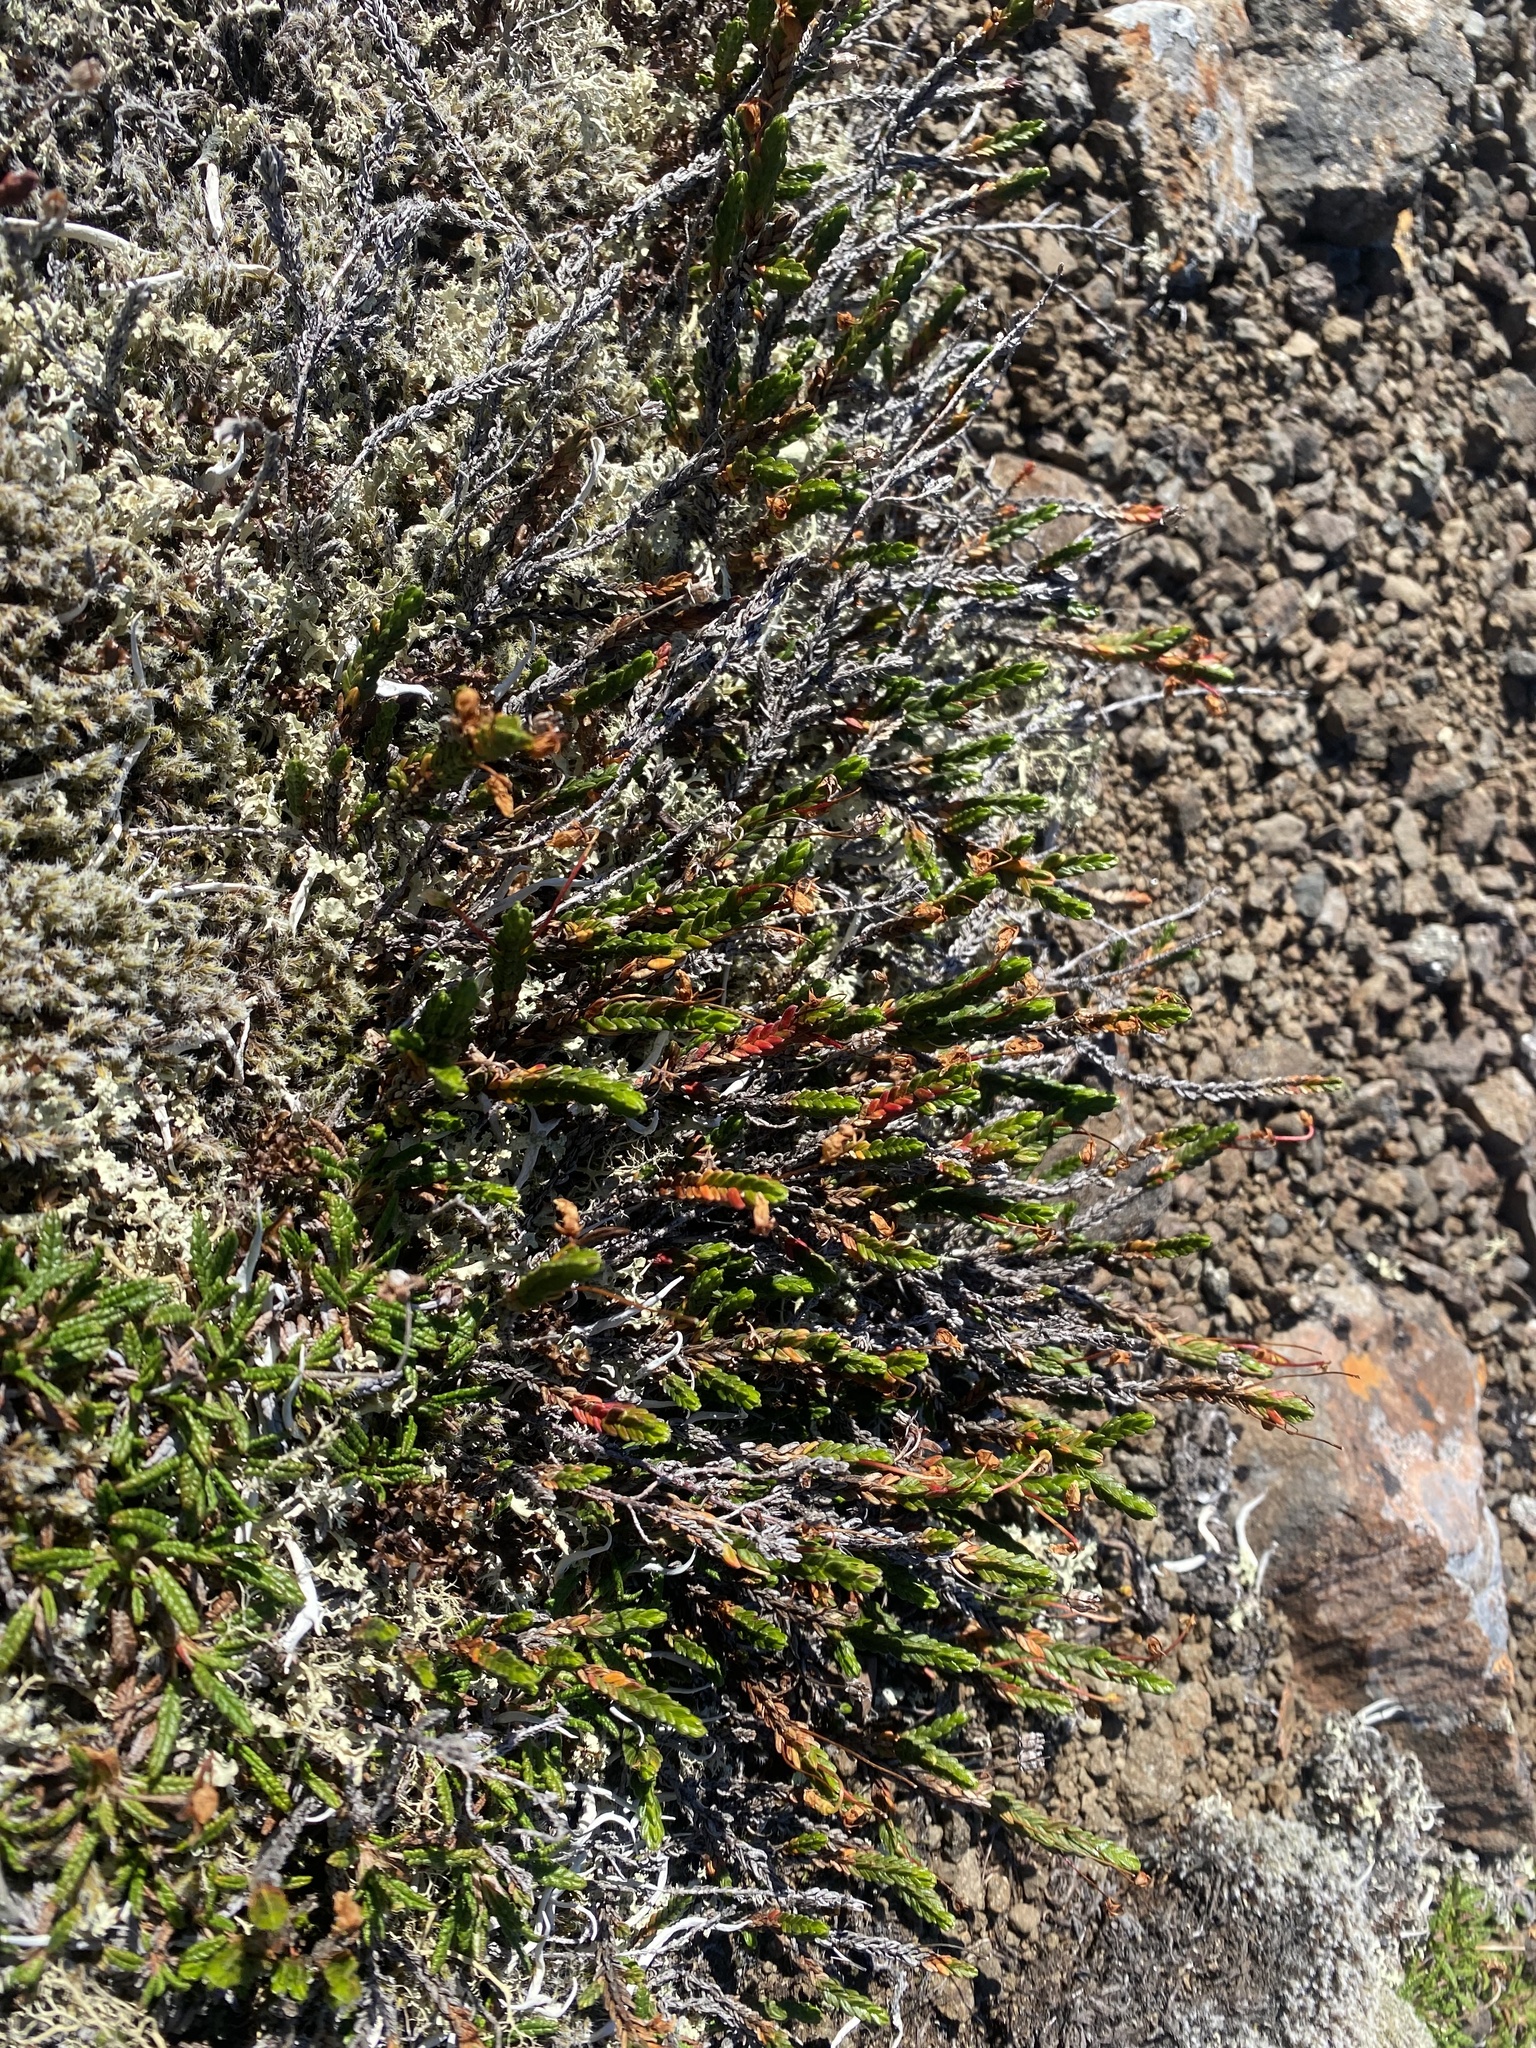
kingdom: Plantae
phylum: Tracheophyta
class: Magnoliopsida
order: Ericales
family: Ericaceae
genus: Cassiope
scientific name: Cassiope tetragona
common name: Arctic bell heather
